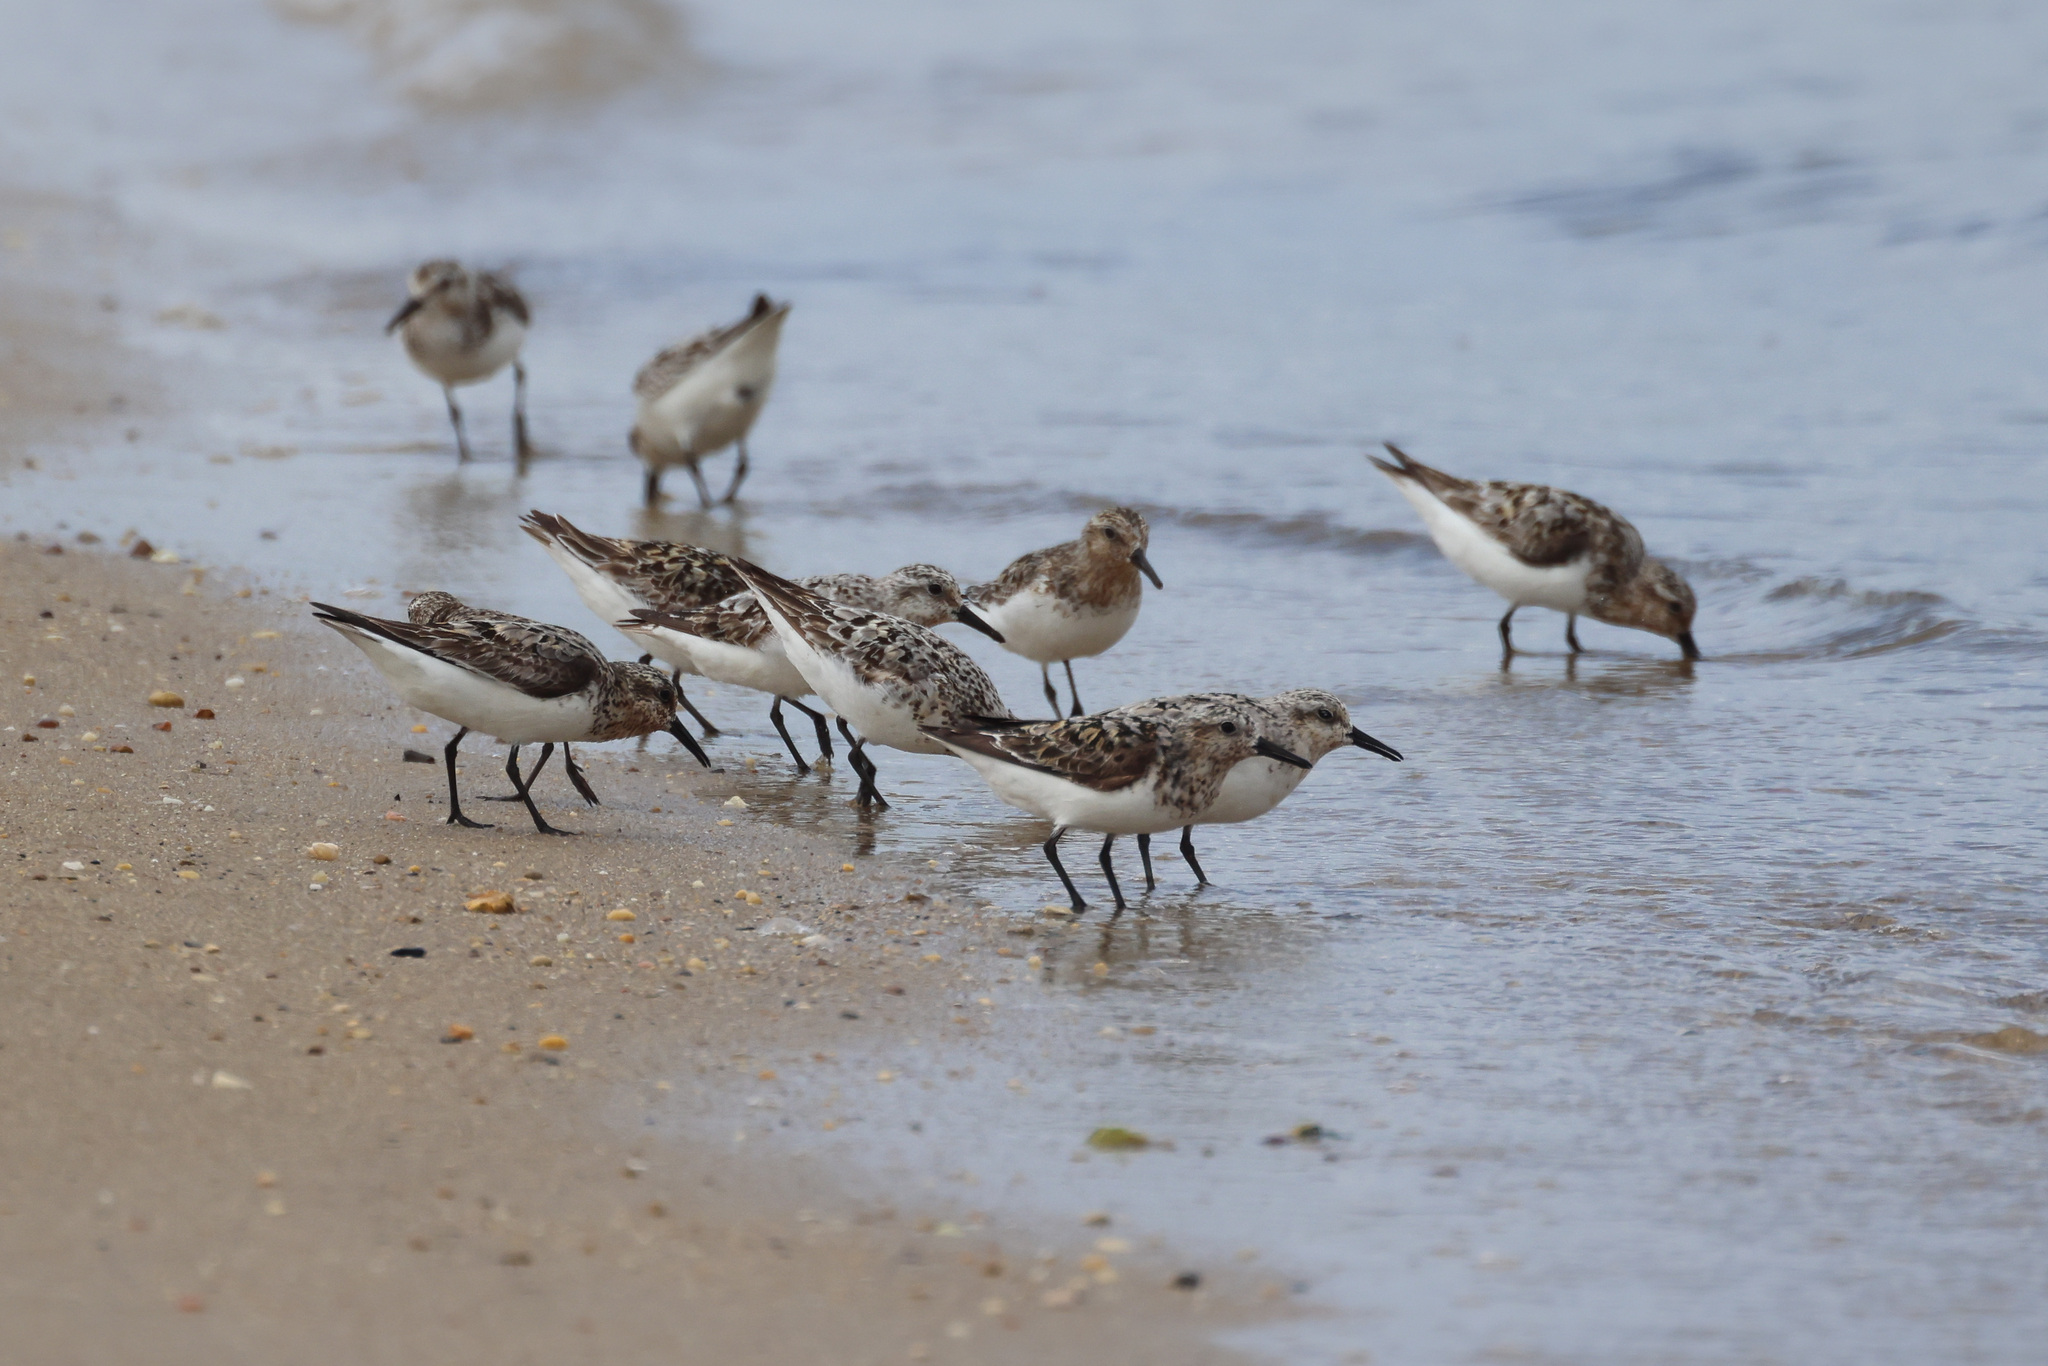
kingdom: Animalia
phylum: Chordata
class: Aves
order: Charadriiformes
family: Scolopacidae
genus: Calidris
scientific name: Calidris alba
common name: Sanderling
